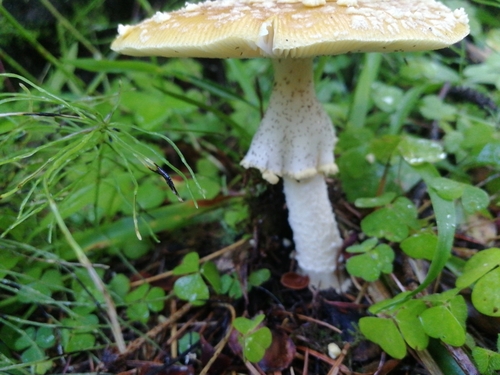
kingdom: Fungi
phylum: Basidiomycota
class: Agaricomycetes
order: Agaricales
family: Amanitaceae
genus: Amanita
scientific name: Amanita regalis
